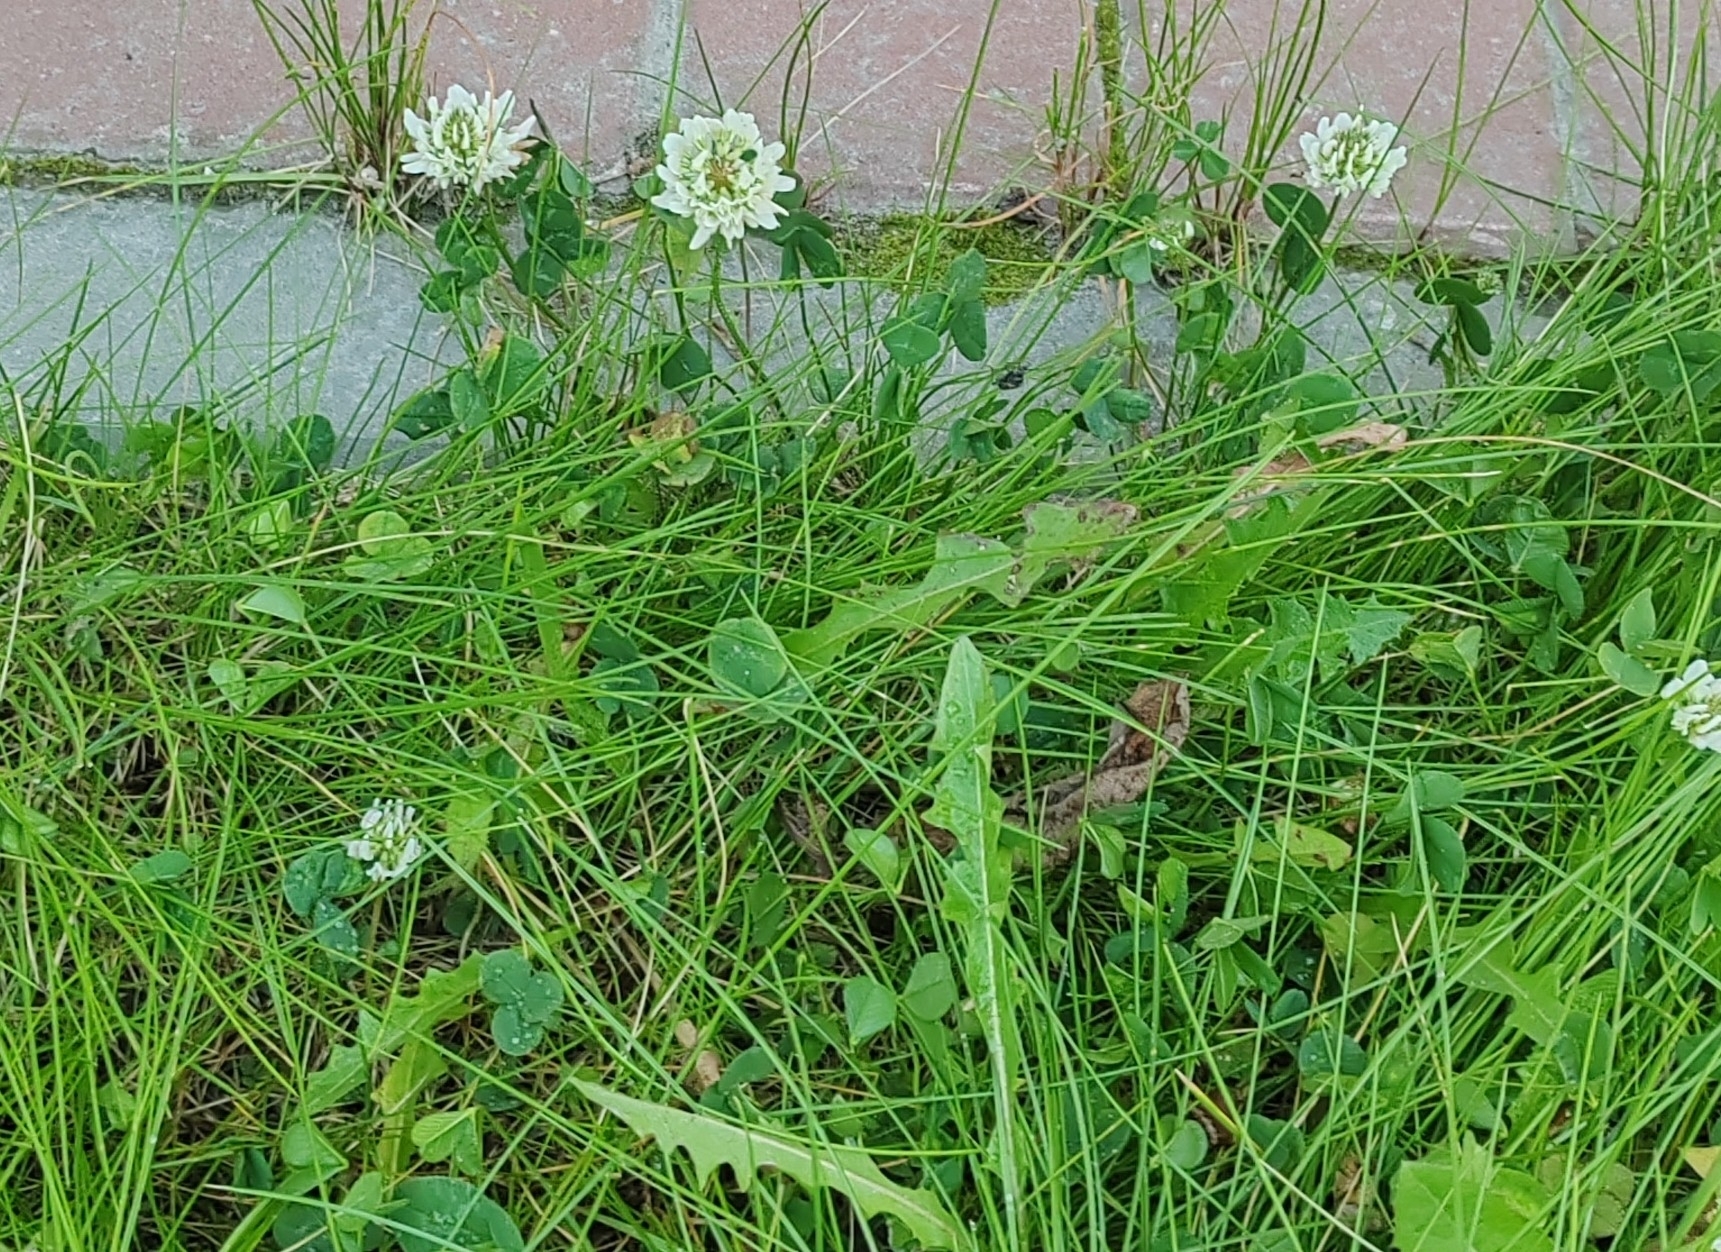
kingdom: Plantae
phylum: Tracheophyta
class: Magnoliopsida
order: Fabales
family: Fabaceae
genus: Trifolium
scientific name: Trifolium repens
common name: White clover
